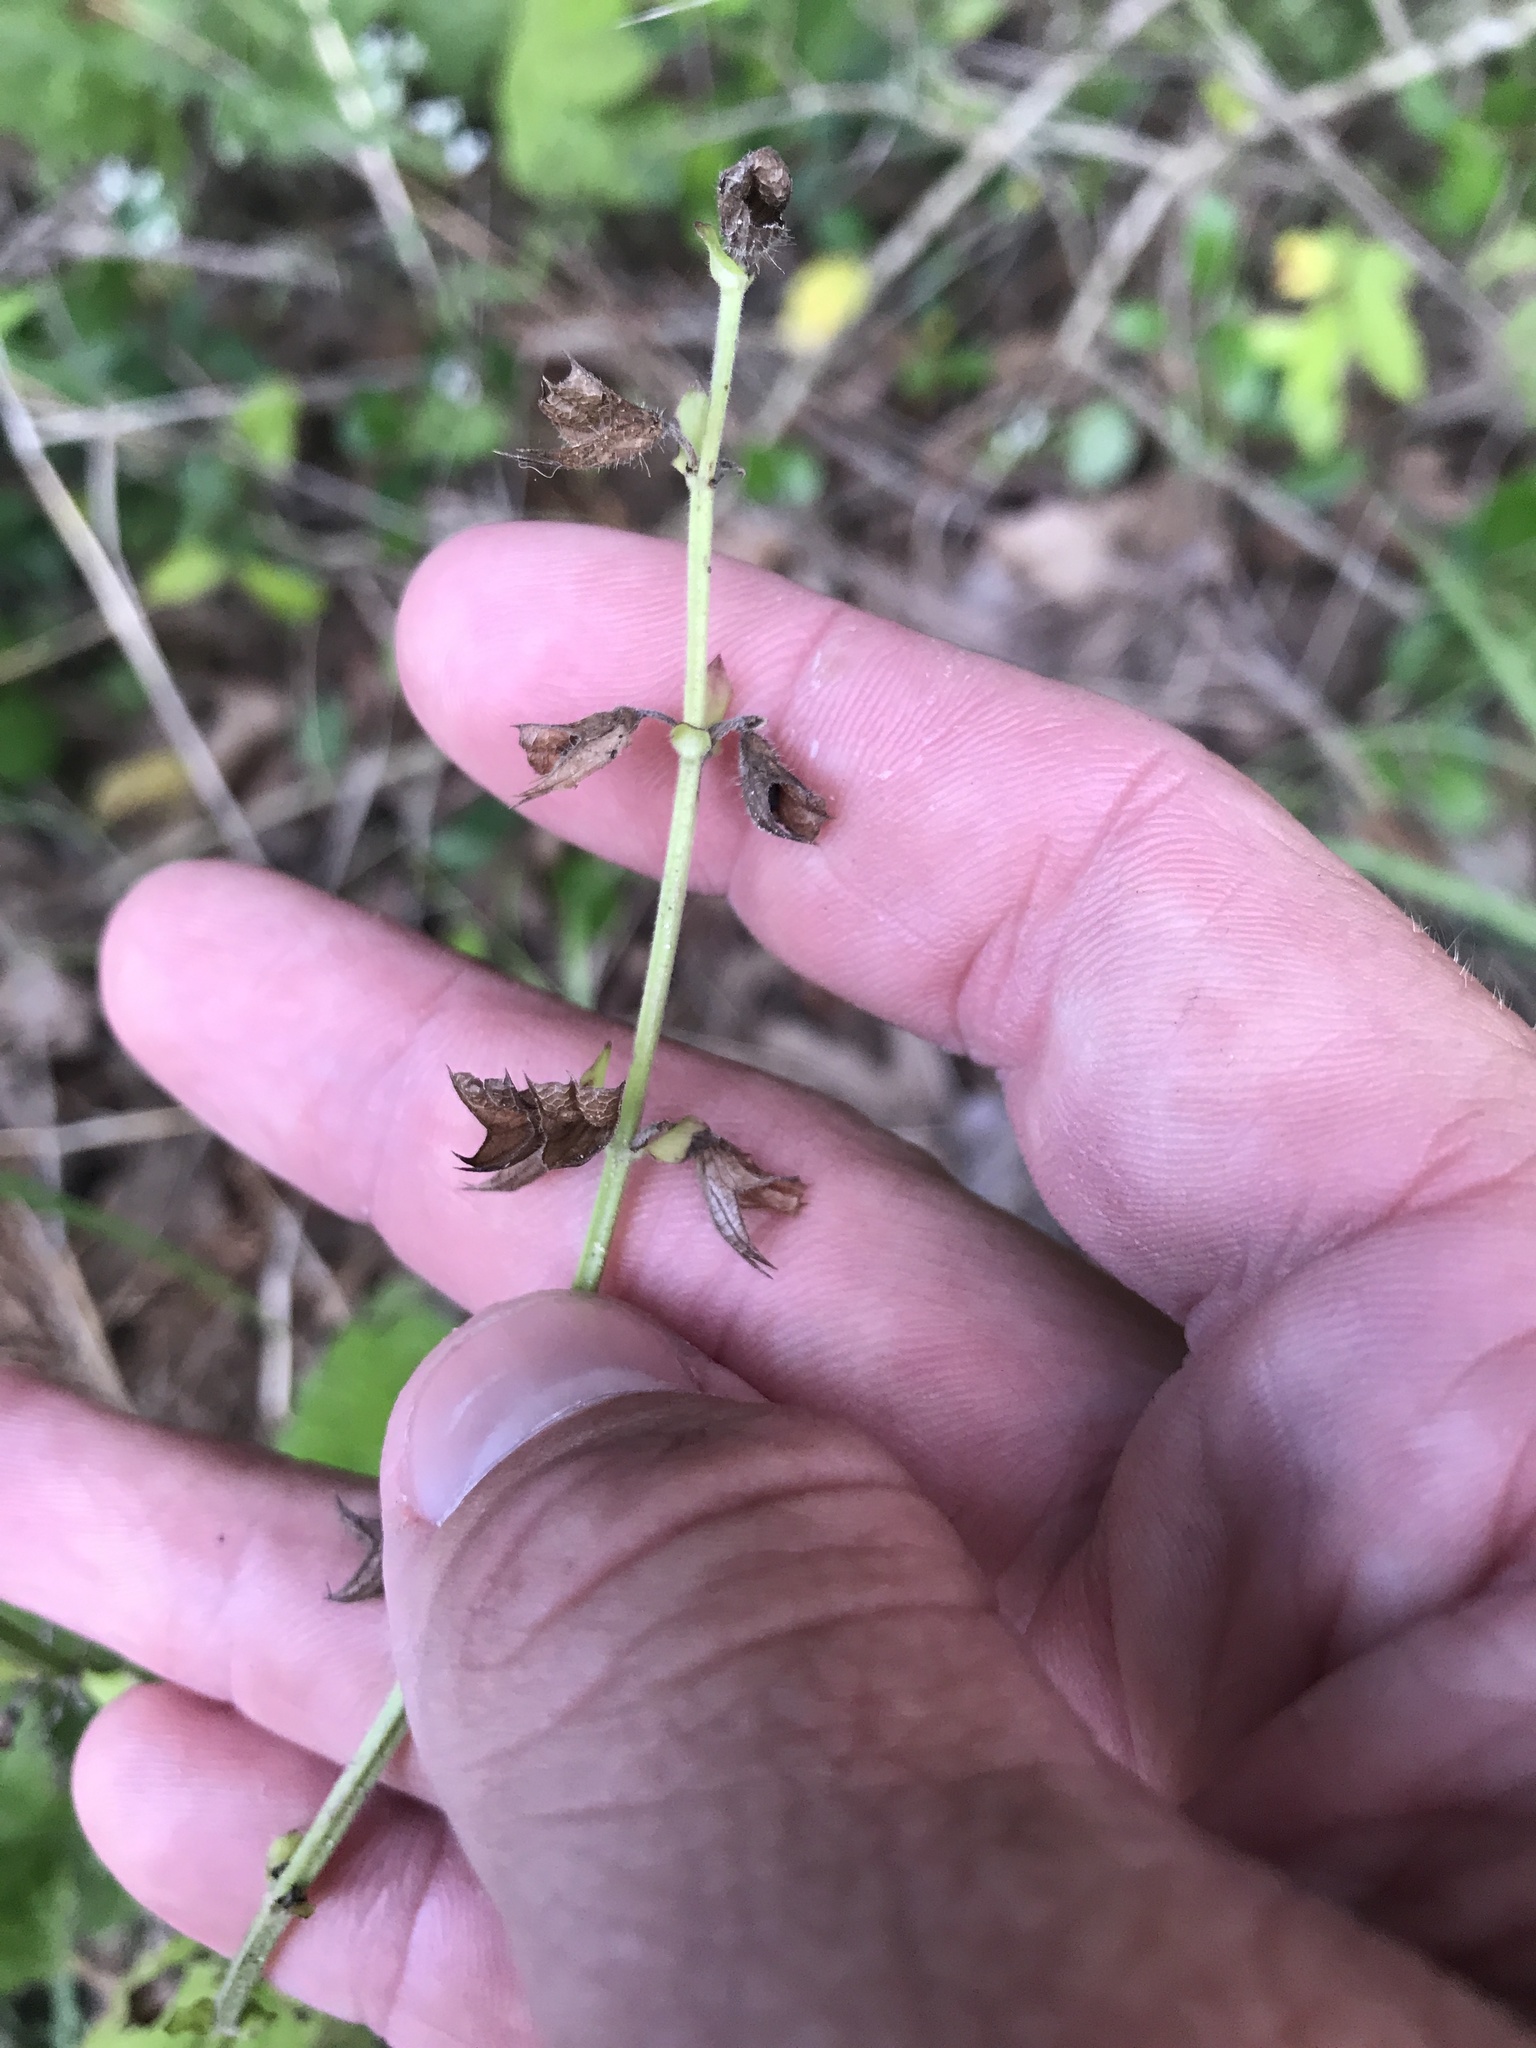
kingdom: Plantae
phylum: Tracheophyta
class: Magnoliopsida
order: Lamiales
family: Lamiaceae
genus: Salvia
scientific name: Salvia lyrata
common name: Cancerweed
